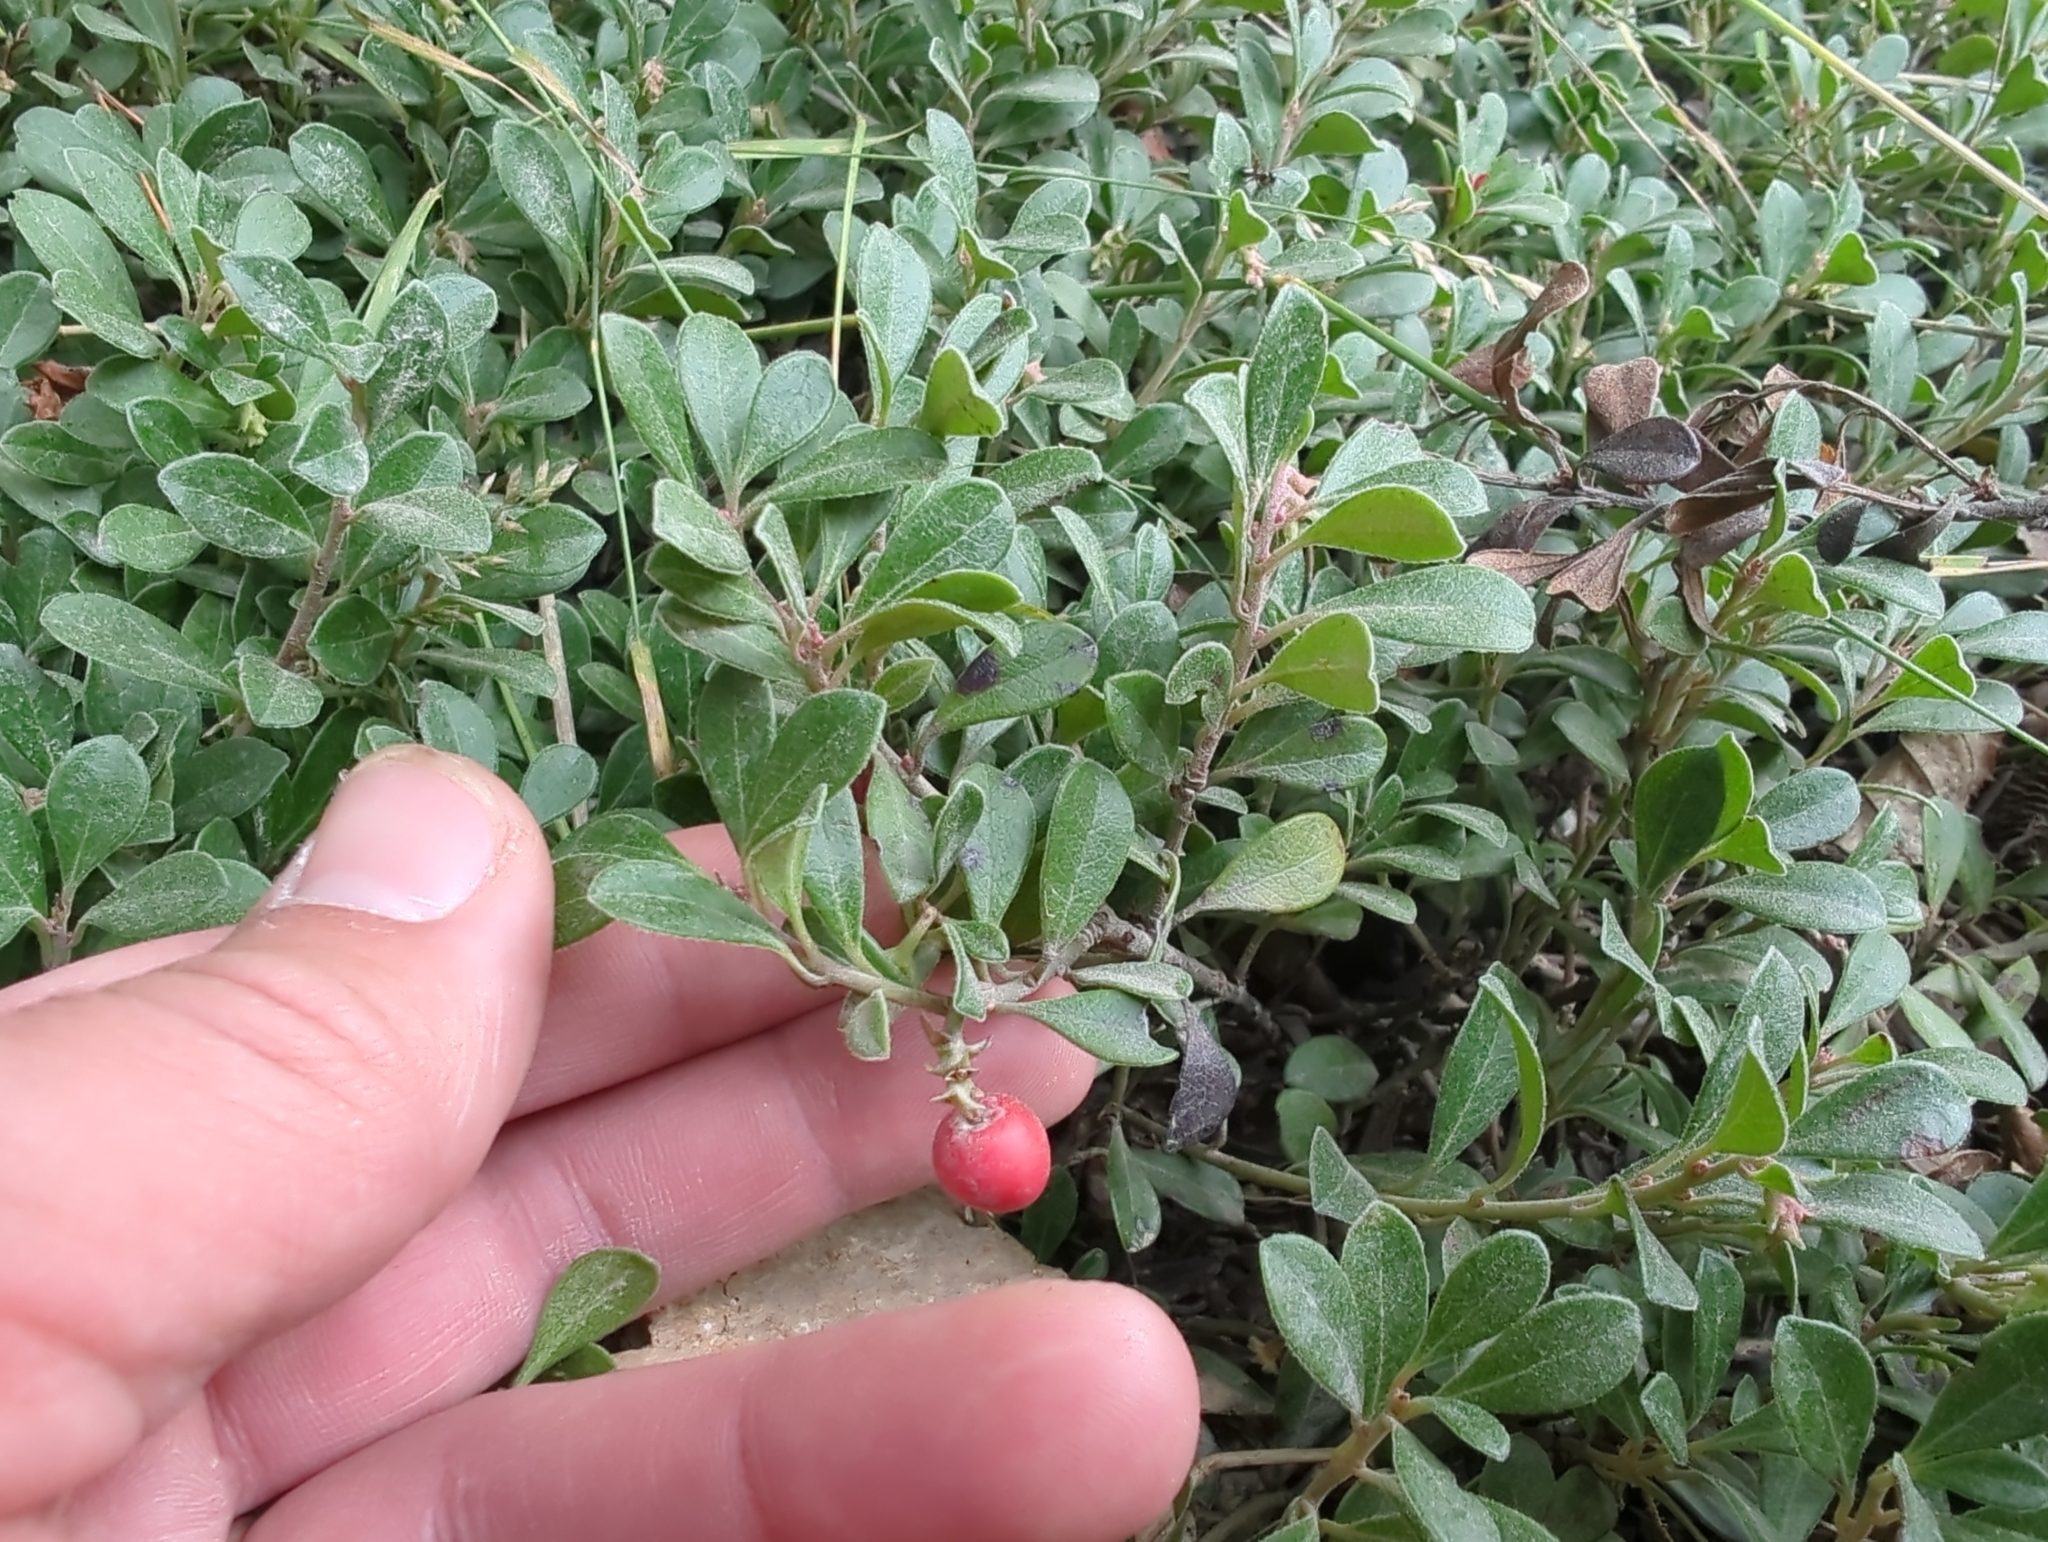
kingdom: Plantae
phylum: Tracheophyta
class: Magnoliopsida
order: Ericales
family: Ericaceae
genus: Arctostaphylos
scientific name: Arctostaphylos uva-ursi
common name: Bearberry
